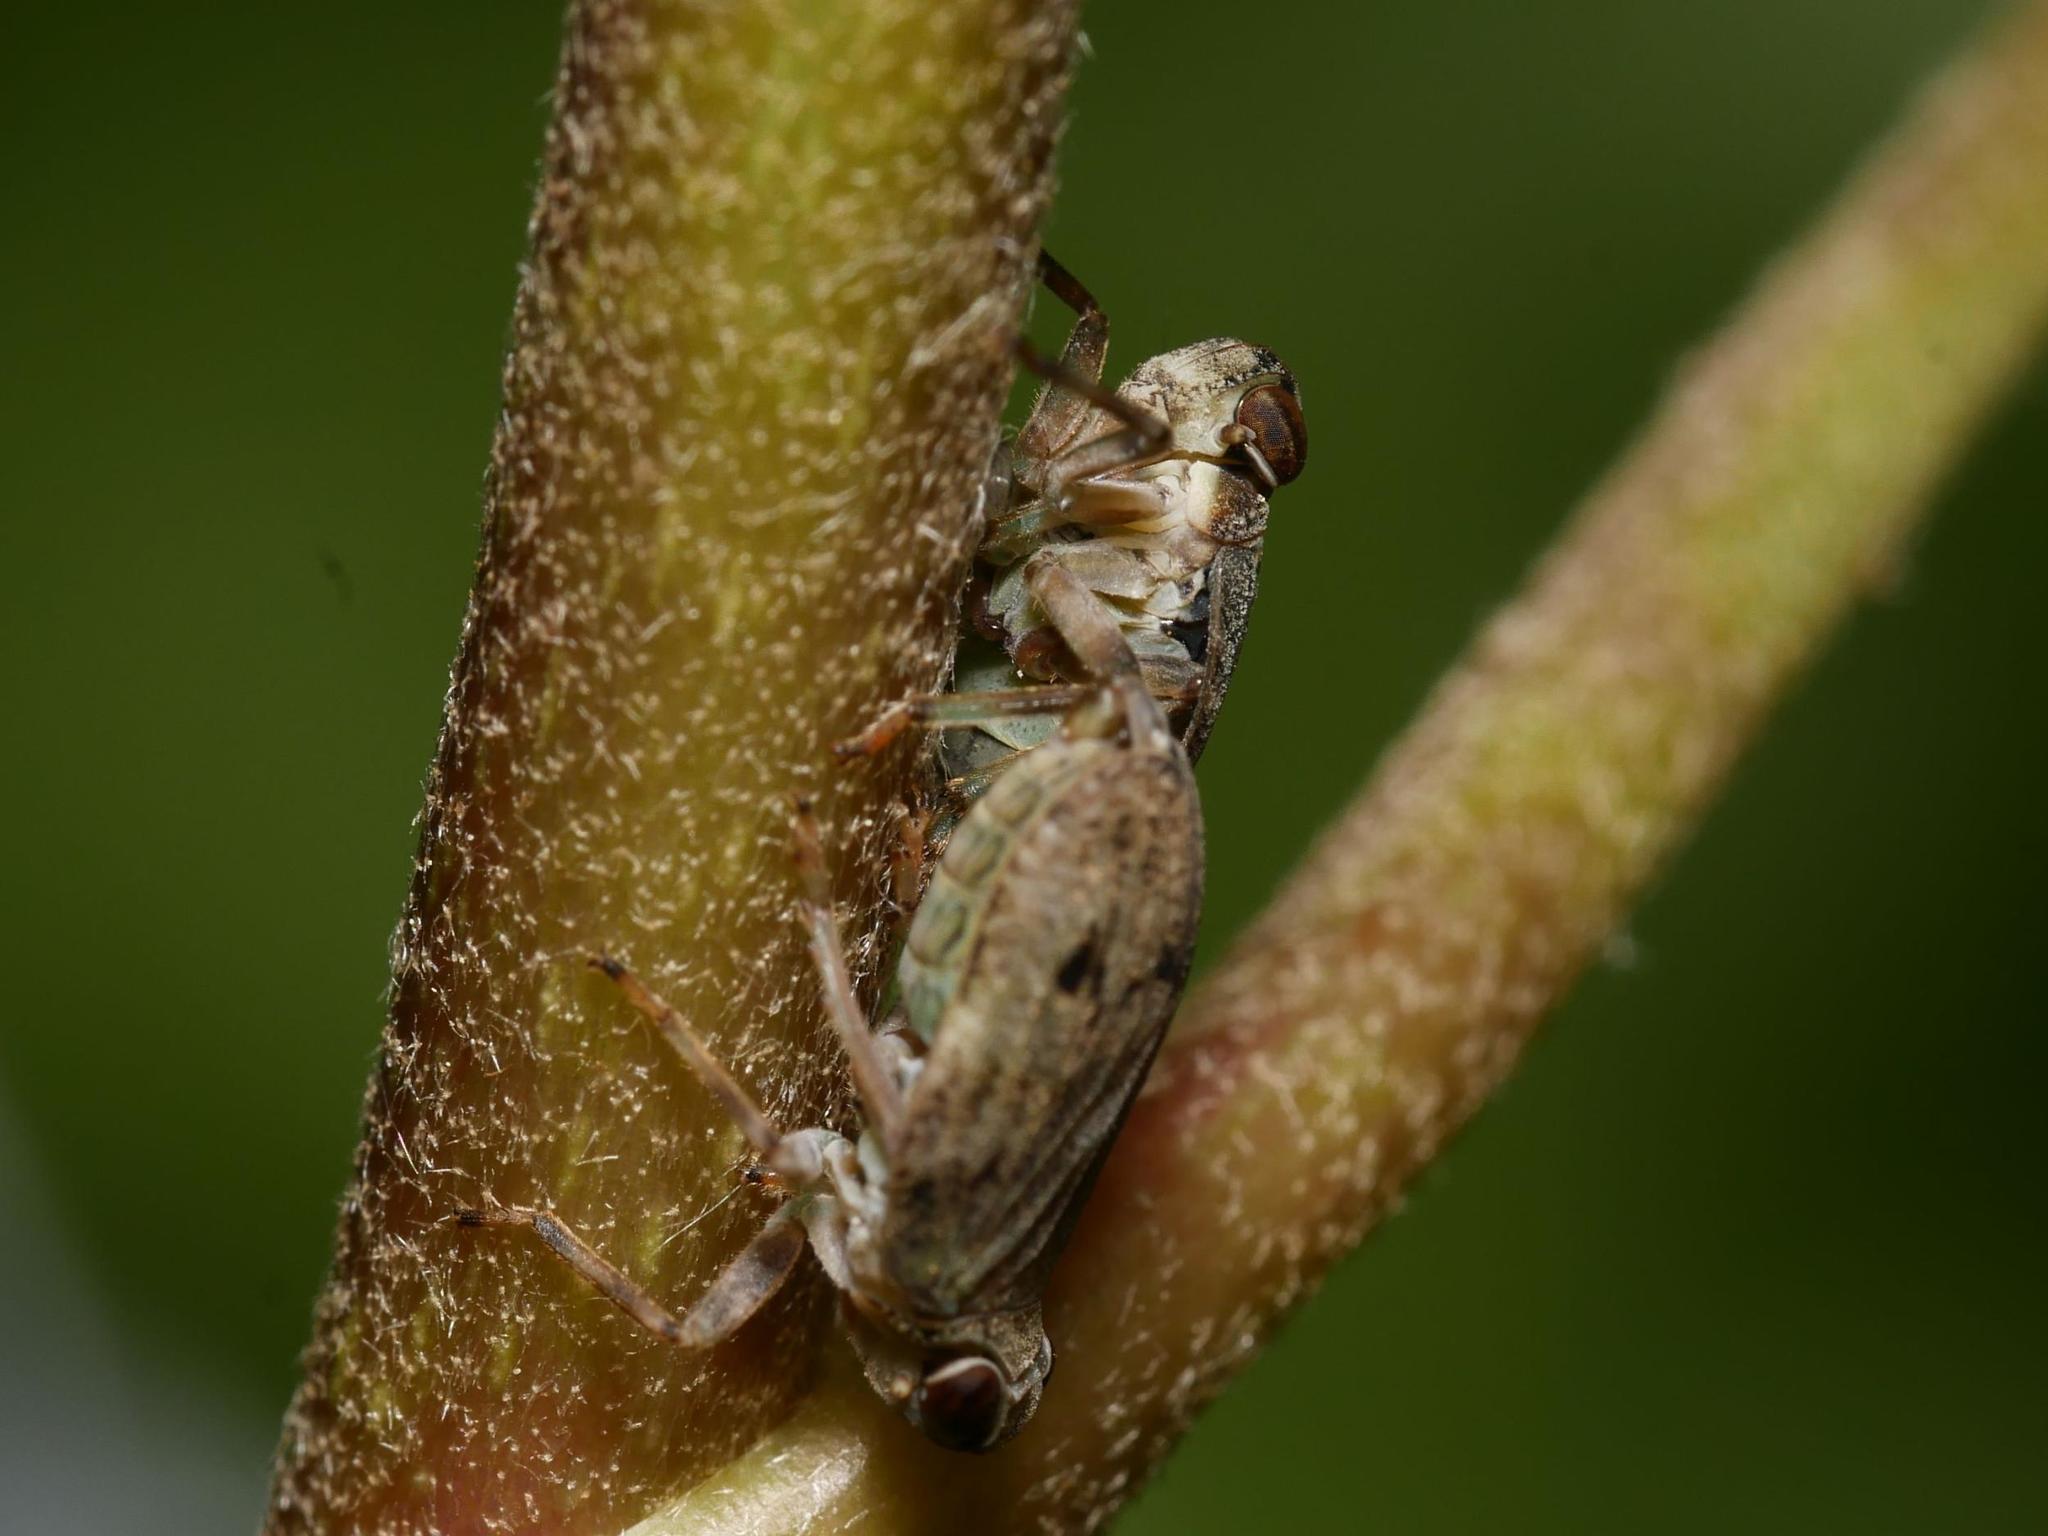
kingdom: Animalia
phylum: Arthropoda
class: Insecta
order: Hemiptera
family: Issidae
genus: Issus
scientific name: Issus coleoptratus
